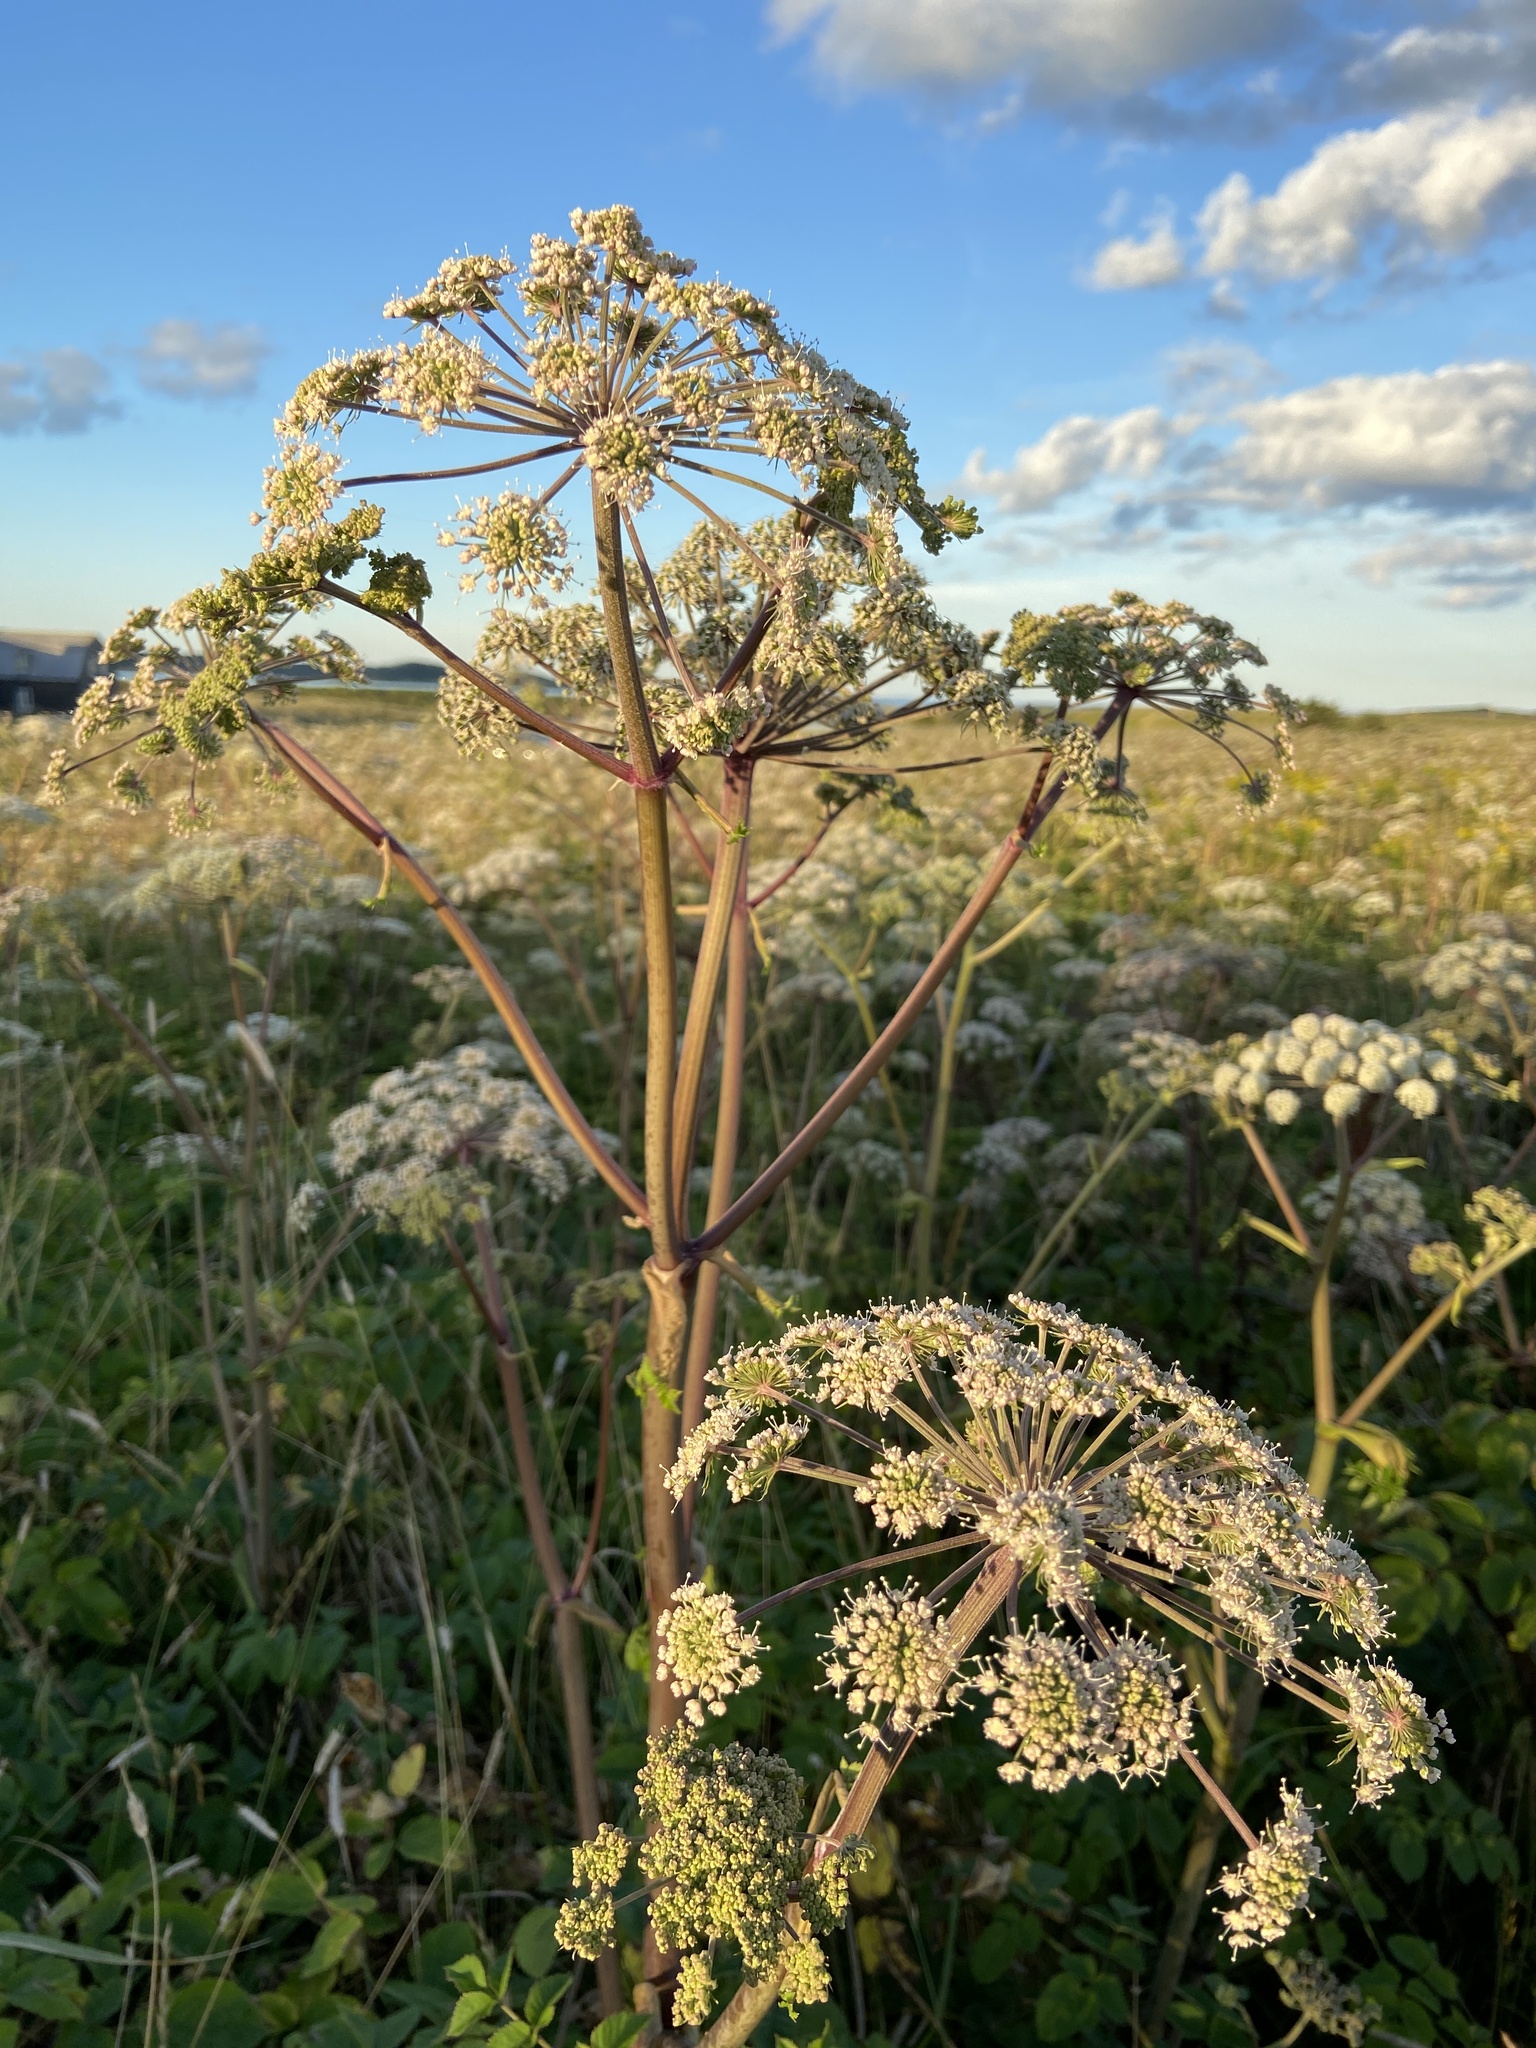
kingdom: Plantae
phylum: Tracheophyta
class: Magnoliopsida
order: Apiales
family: Apiaceae
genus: Angelica
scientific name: Angelica sylvestris
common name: Wild angelica
